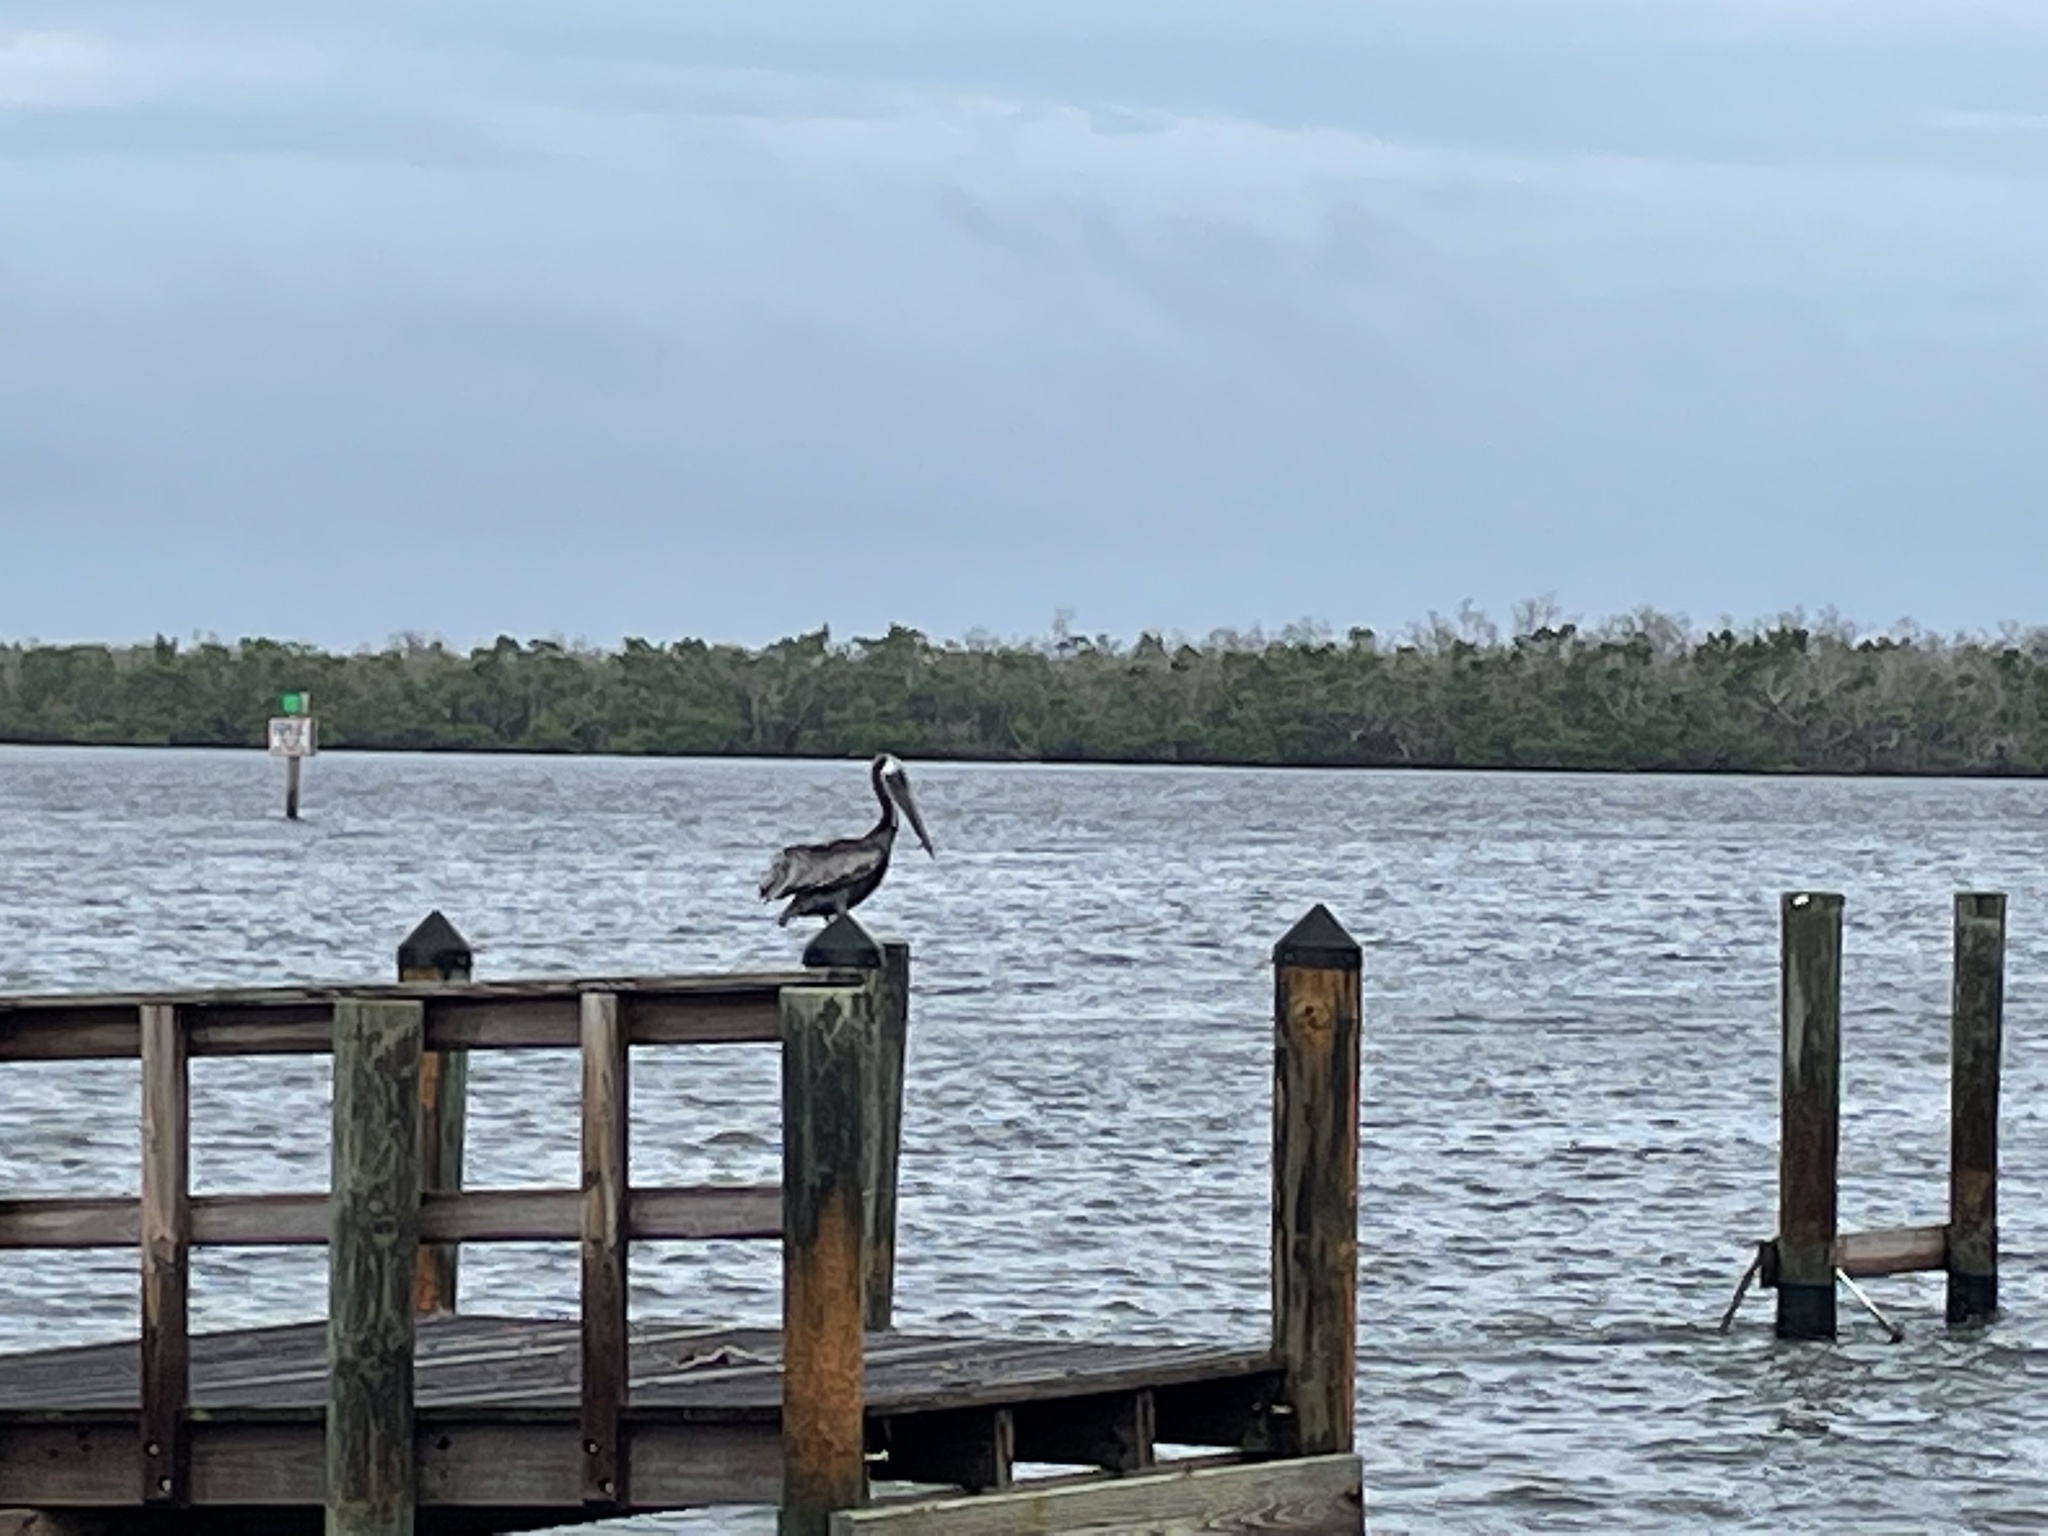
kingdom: Animalia
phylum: Chordata
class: Aves
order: Pelecaniformes
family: Pelecanidae
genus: Pelecanus
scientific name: Pelecanus occidentalis
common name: Brown pelican
